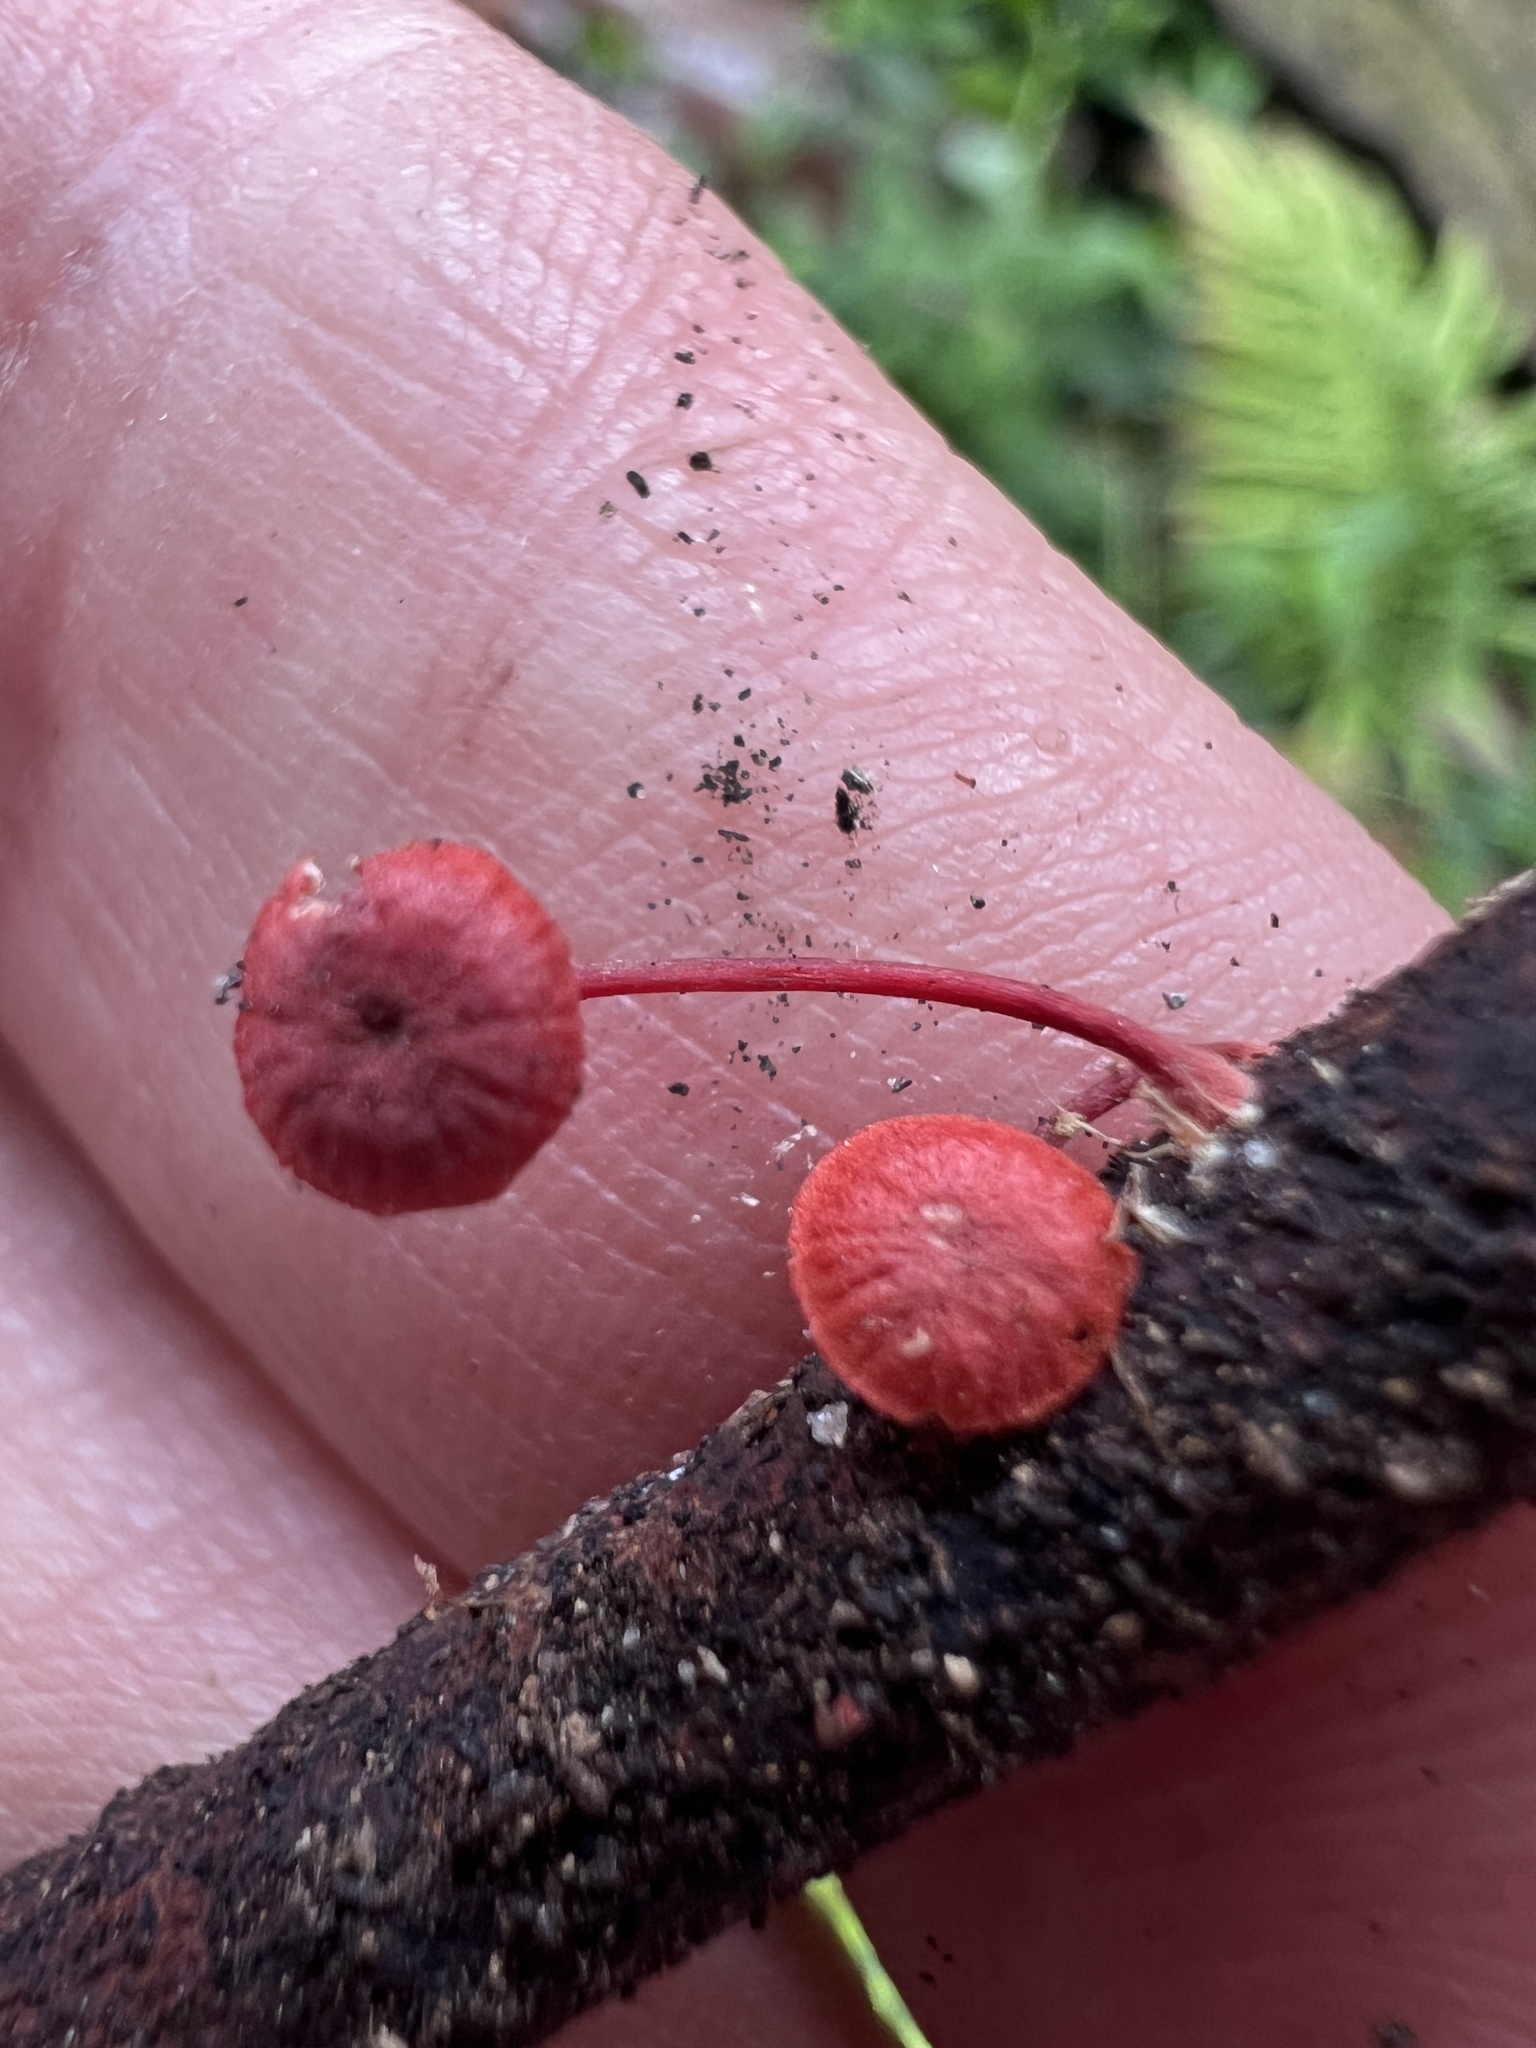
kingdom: Fungi
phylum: Basidiomycota
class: Agaricomycetes
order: Agaricales
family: Mycenaceae
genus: Cruentomycena
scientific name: Cruentomycena viscidocruenta
